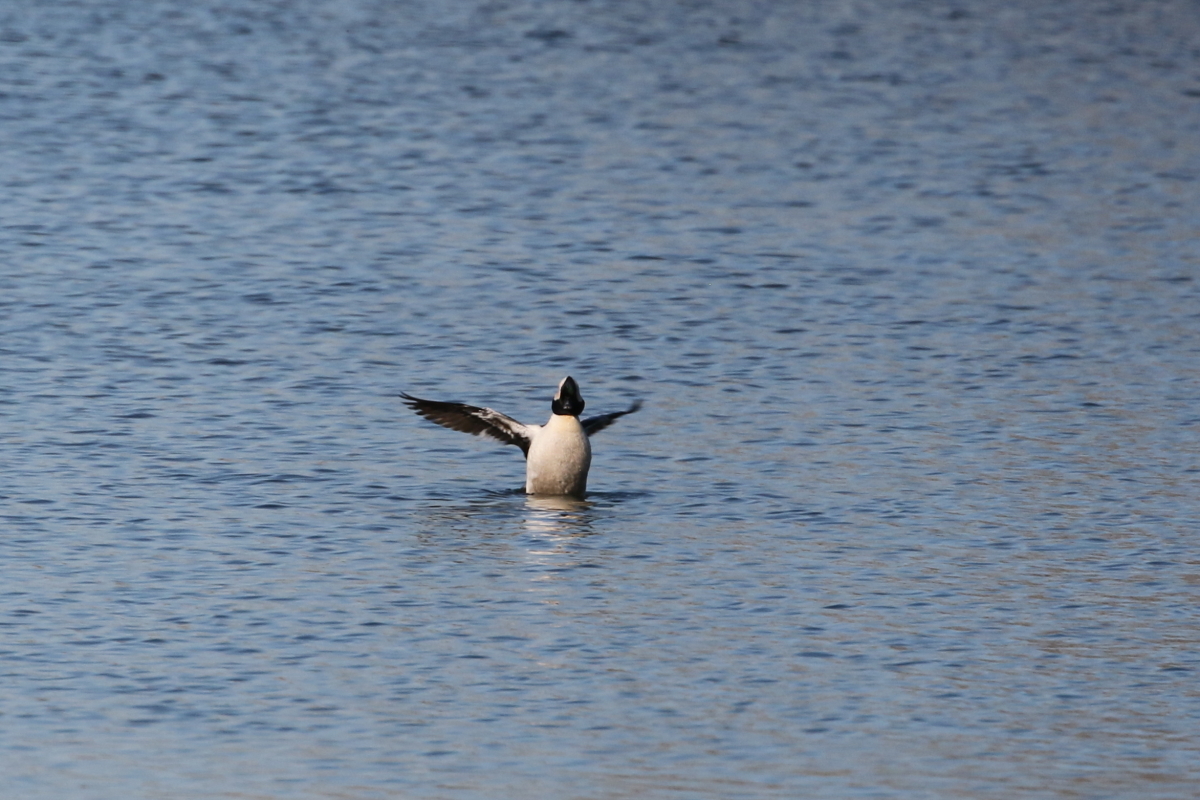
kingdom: Animalia
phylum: Chordata
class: Aves
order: Anseriformes
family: Anatidae
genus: Bucephala
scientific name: Bucephala albeola
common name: Bufflehead
